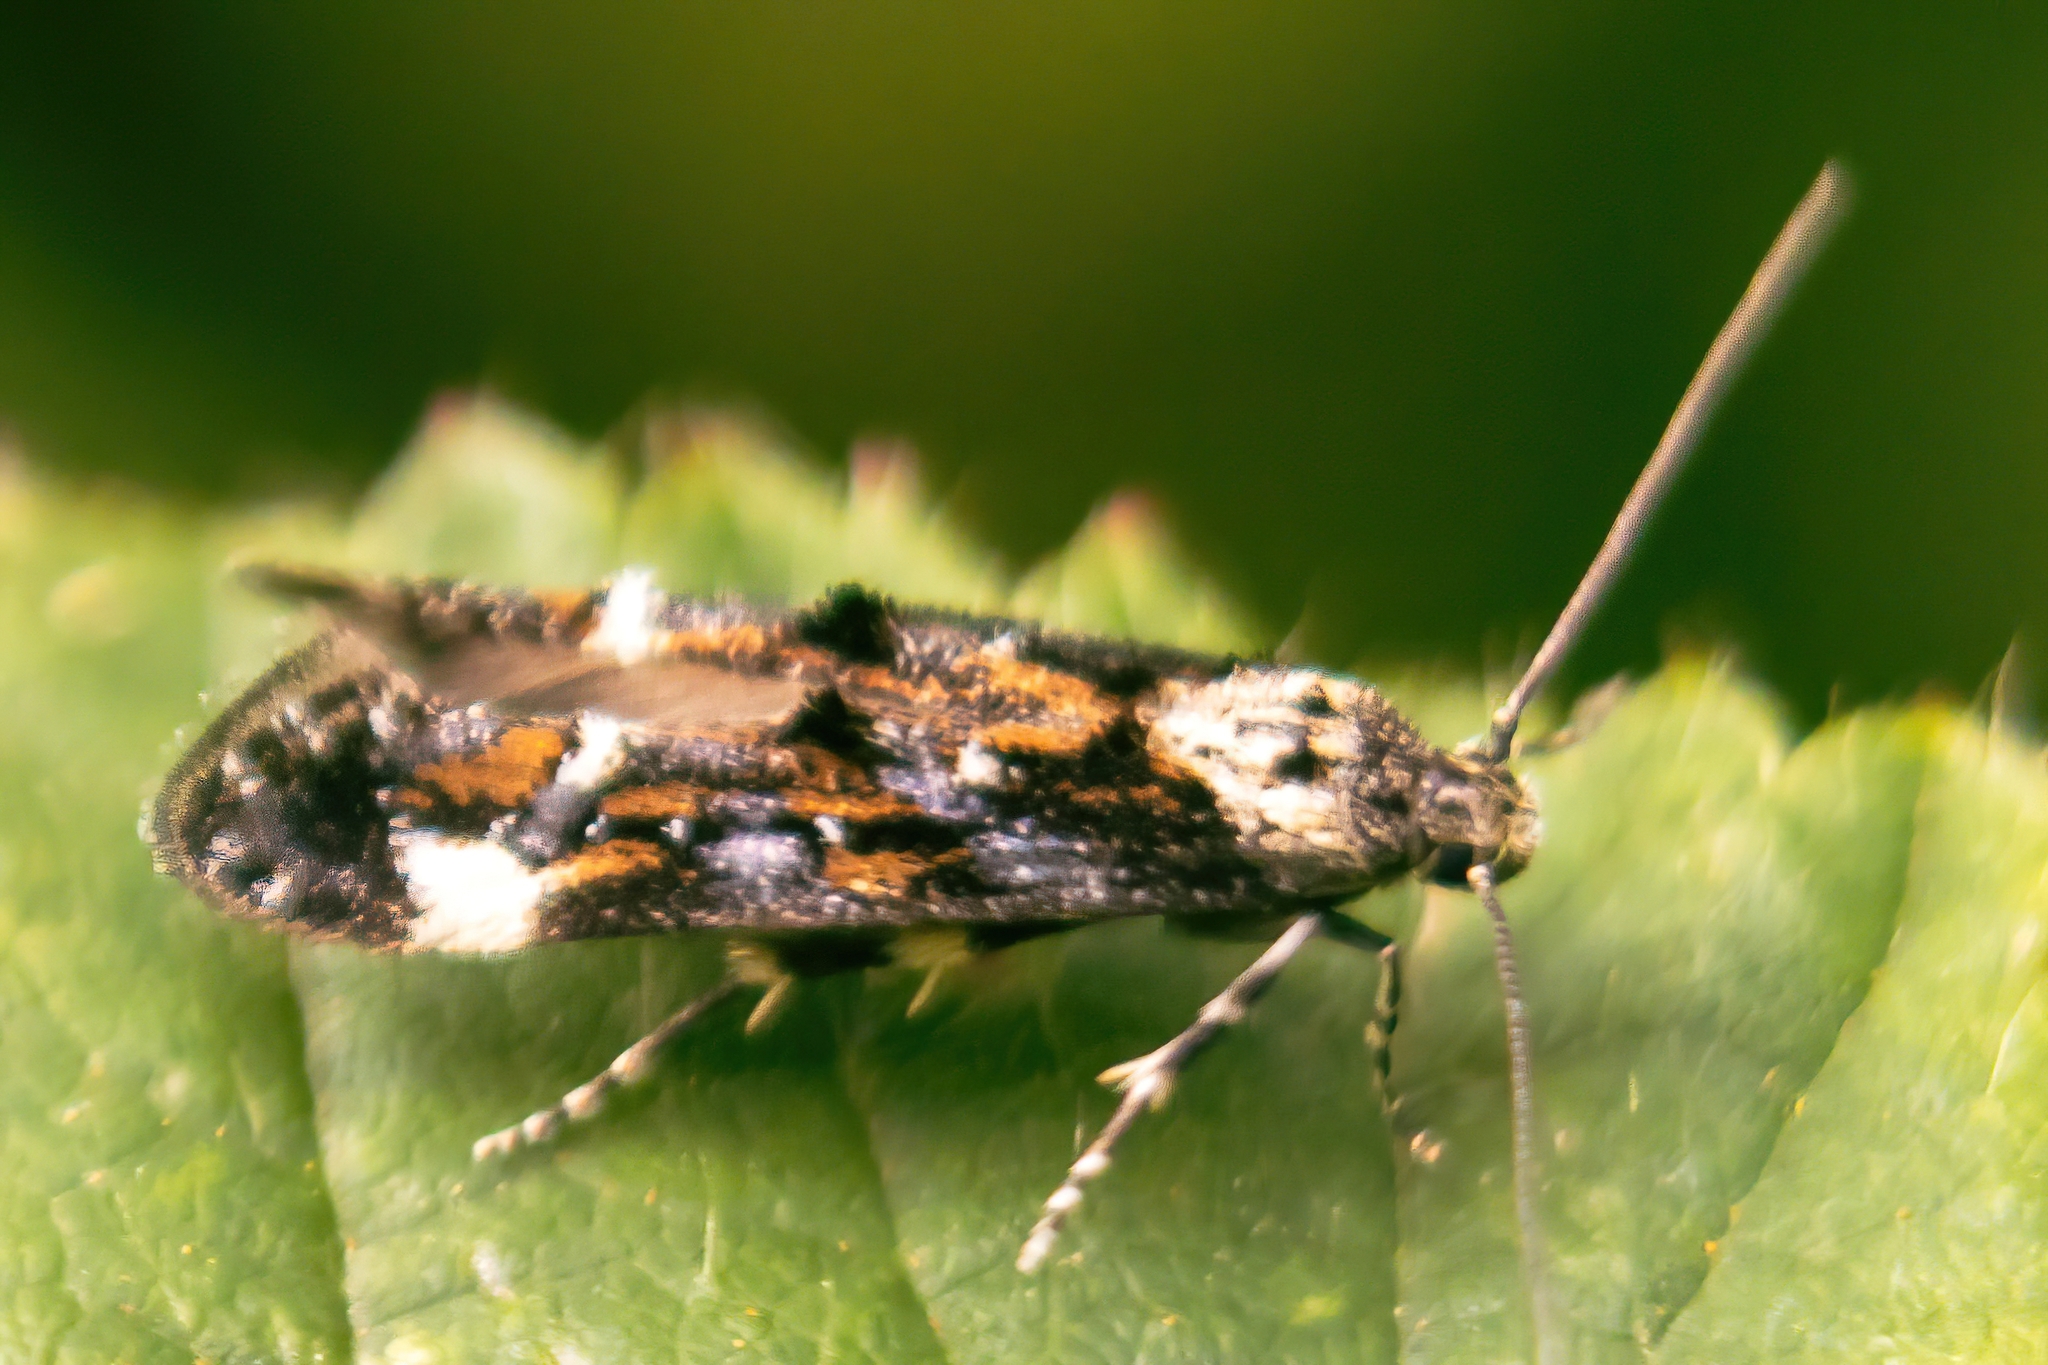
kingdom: Animalia
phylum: Arthropoda
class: Insecta
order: Lepidoptera
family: Momphidae
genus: Mompha
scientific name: Mompha conturbatella
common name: Large dark mompha
